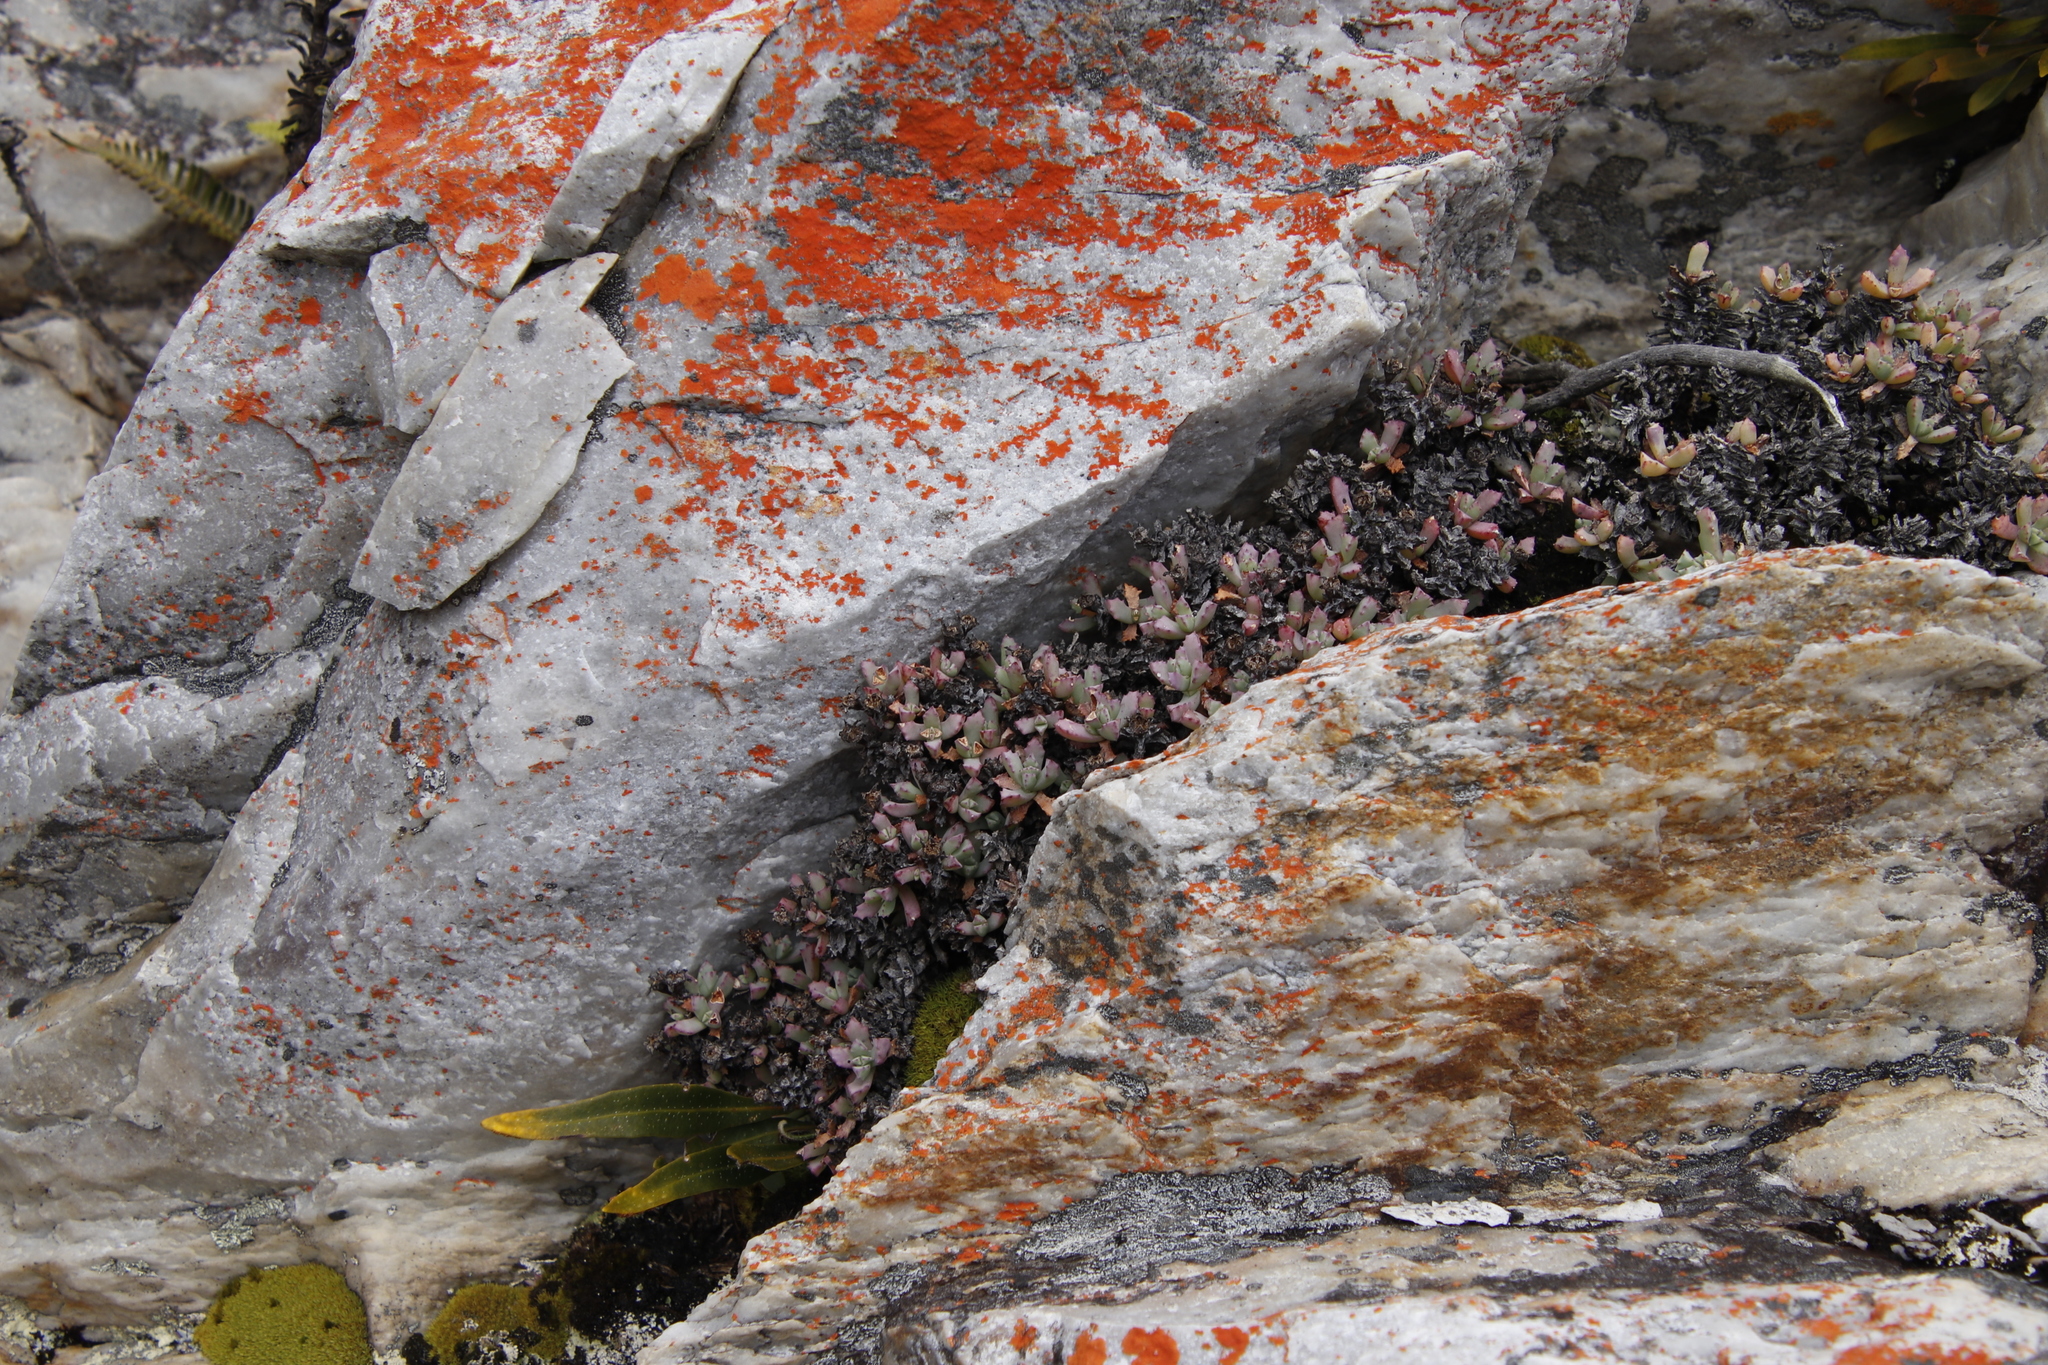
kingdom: Plantae
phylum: Tracheophyta
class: Magnoliopsida
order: Caryophyllales
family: Aizoaceae
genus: Oscularia
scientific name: Oscularia deltoides
